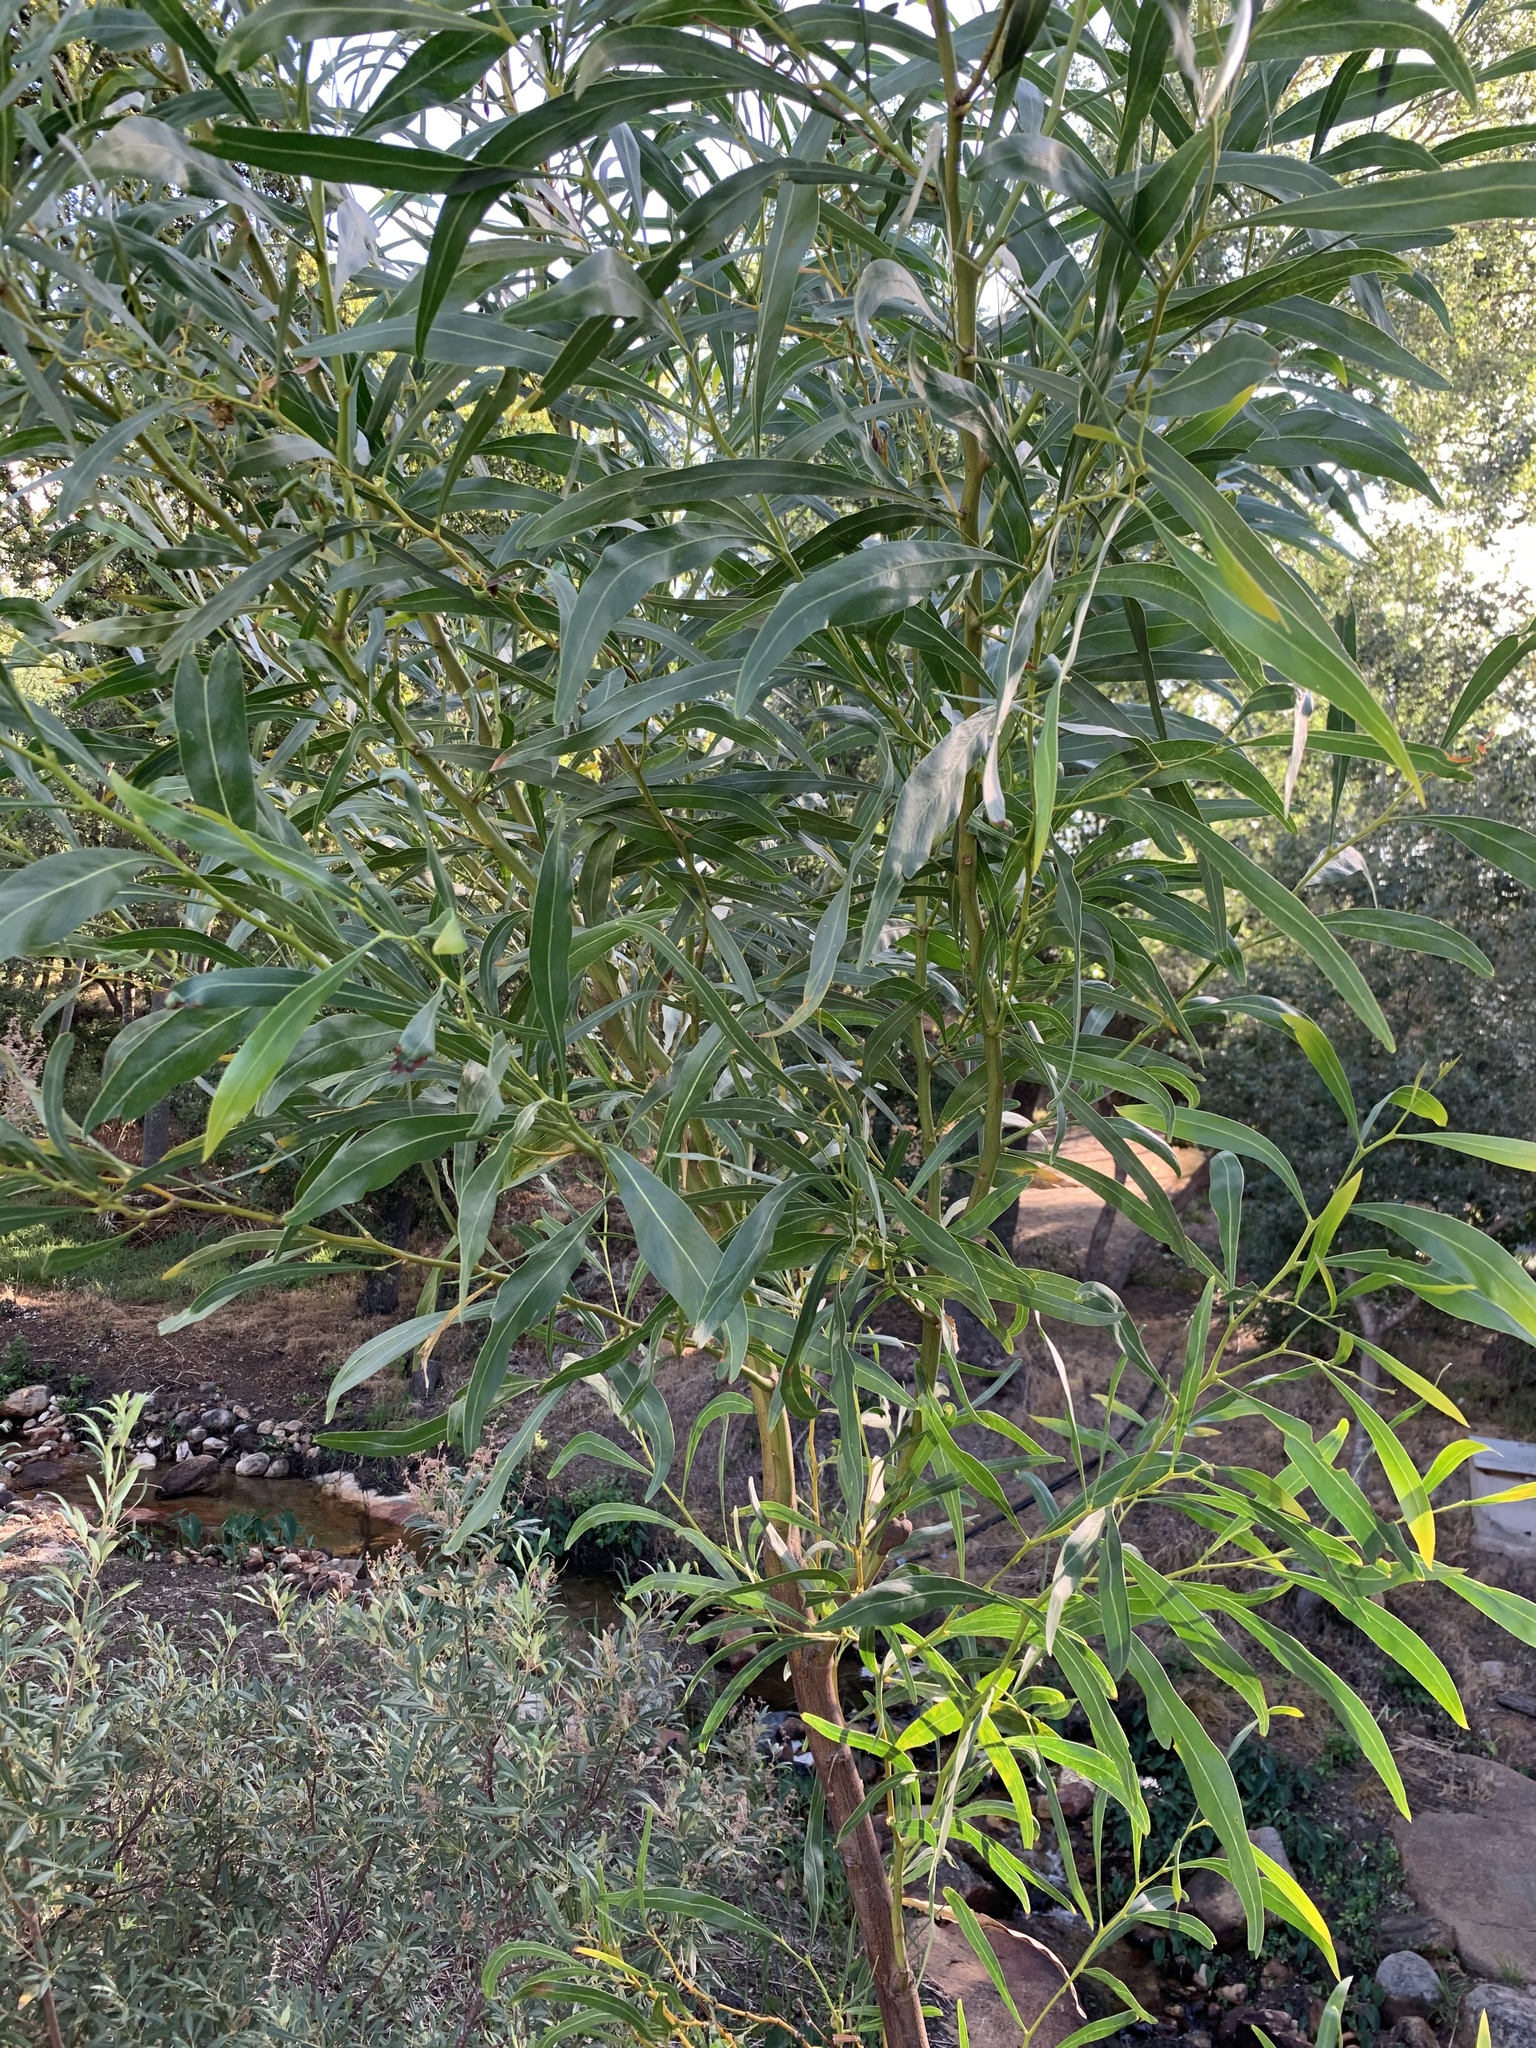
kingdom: Plantae
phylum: Tracheophyta
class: Magnoliopsida
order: Fabales
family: Fabaceae
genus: Acacia
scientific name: Acacia saligna
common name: Orange wattle
